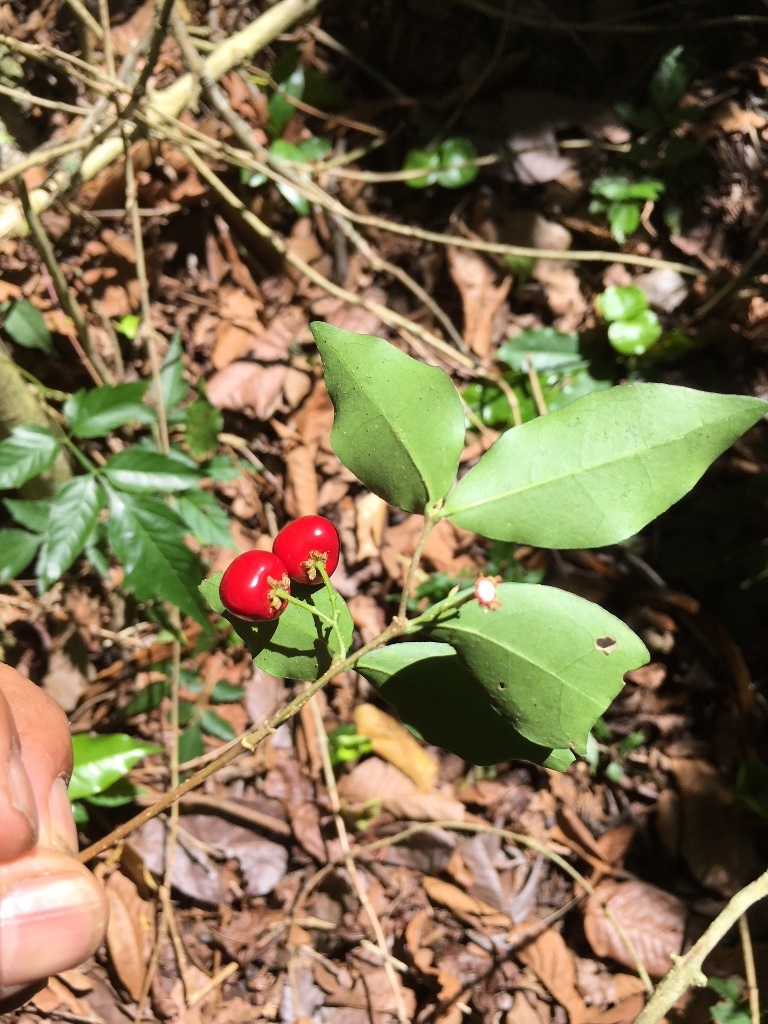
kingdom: Plantae
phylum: Tracheophyta
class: Magnoliopsida
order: Malpighiales
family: Malpighiaceae
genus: Malpighia
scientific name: Malpighia souzae
